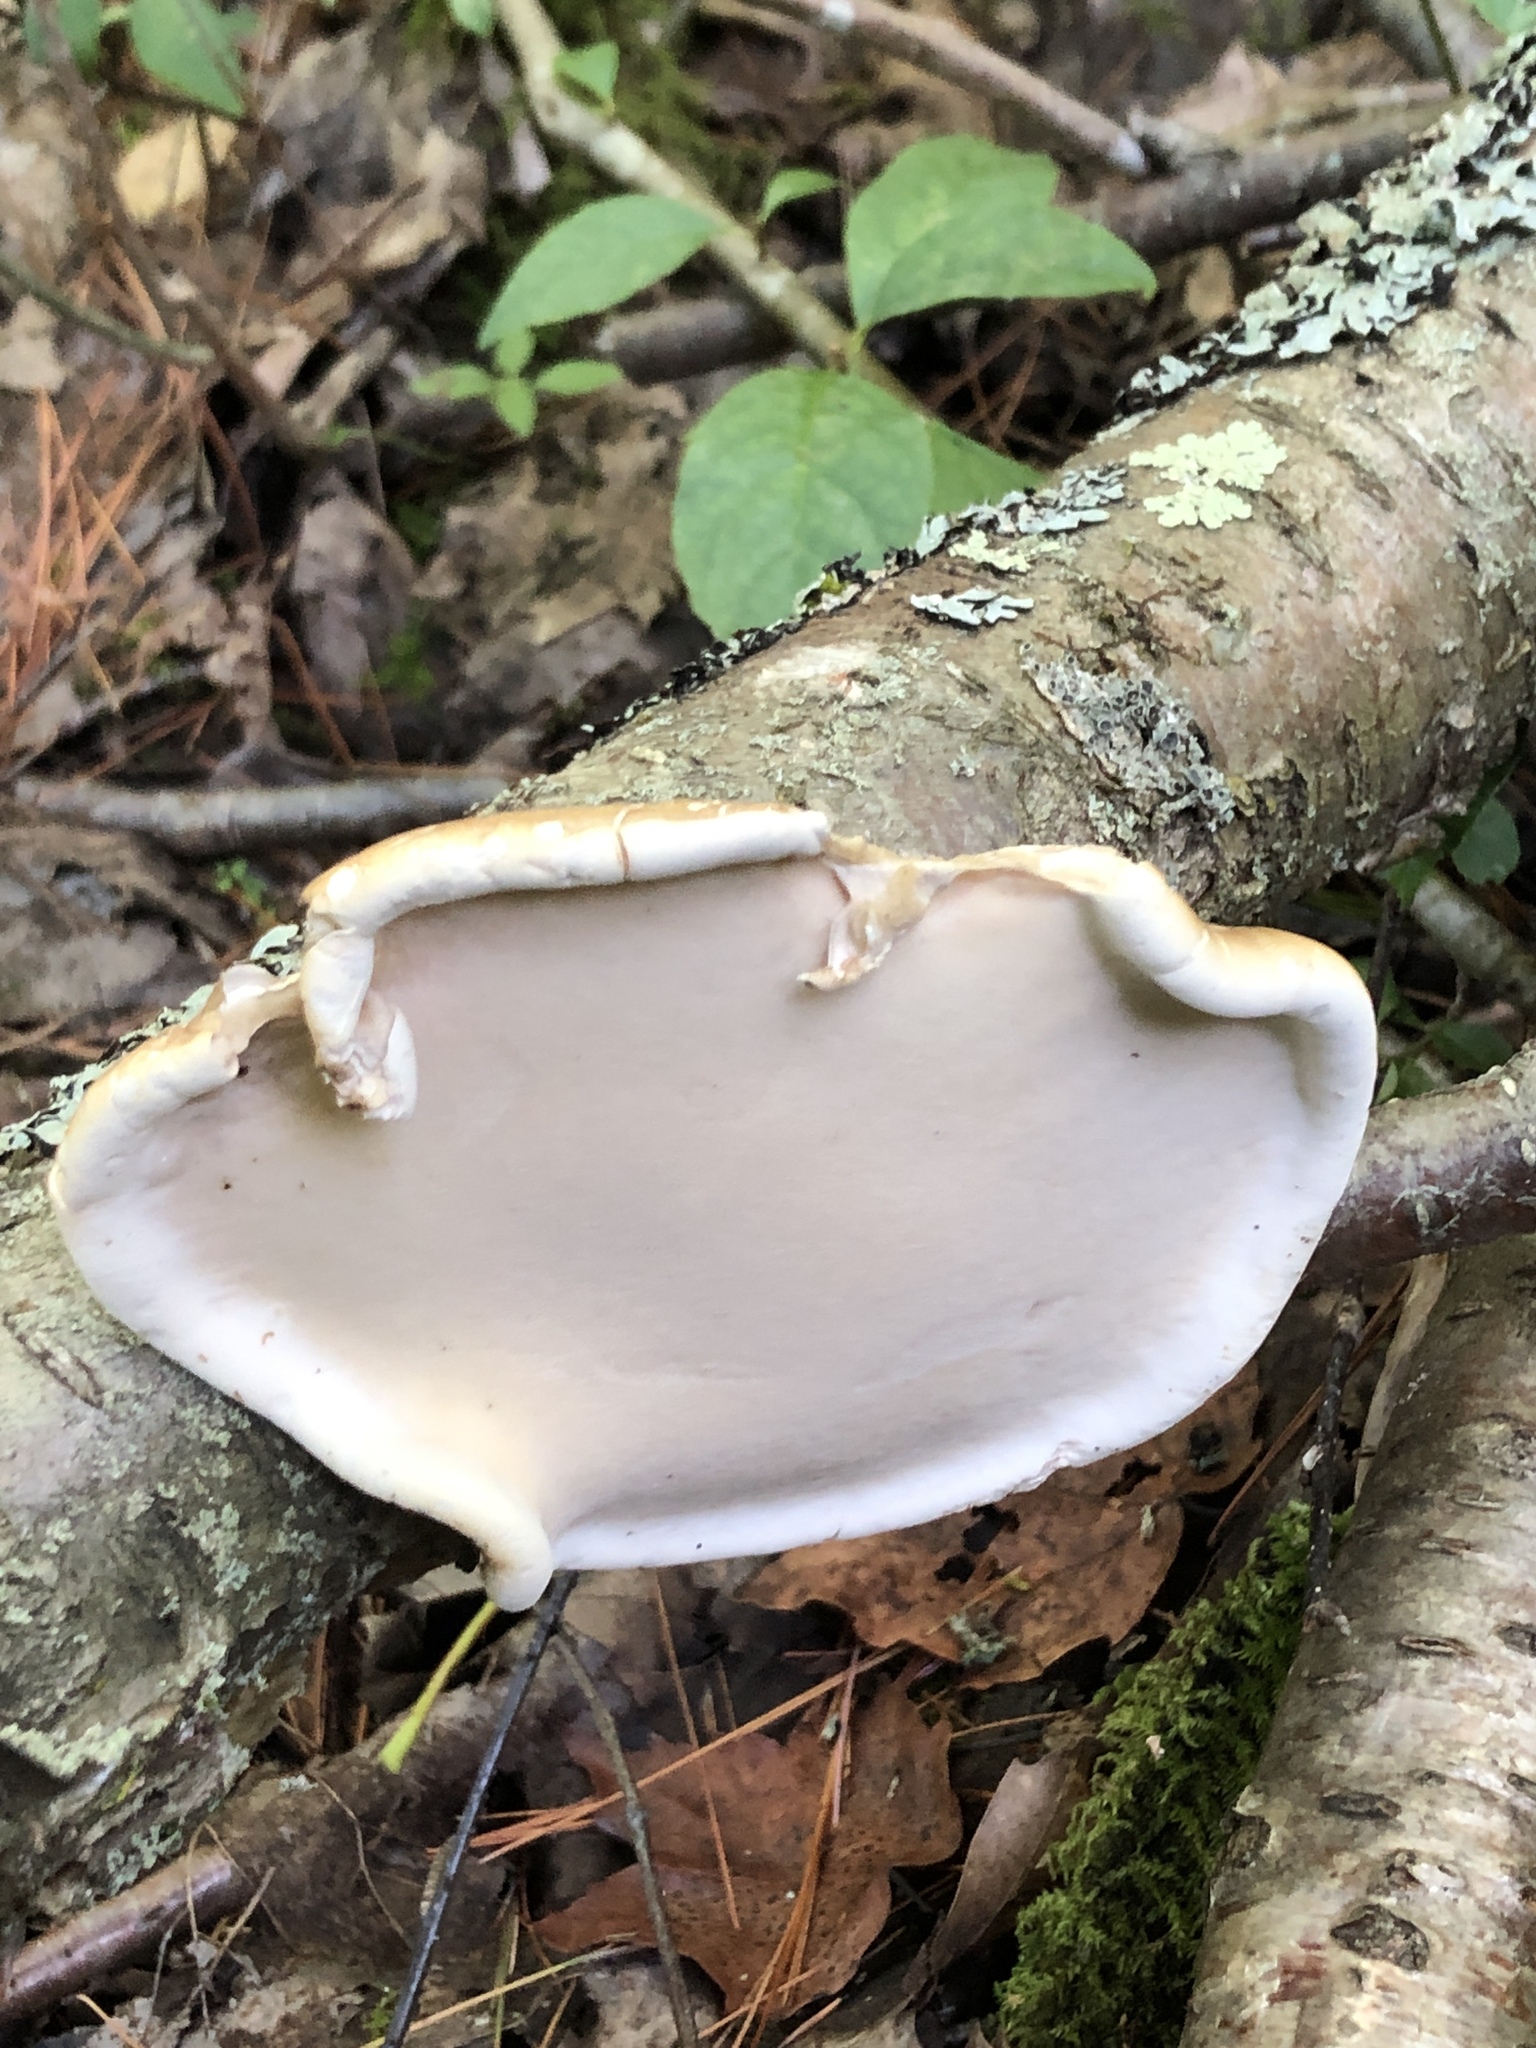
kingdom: Fungi
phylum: Basidiomycota
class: Agaricomycetes
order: Polyporales
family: Fomitopsidaceae
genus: Fomitopsis
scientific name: Fomitopsis betulina
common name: Birch polypore
